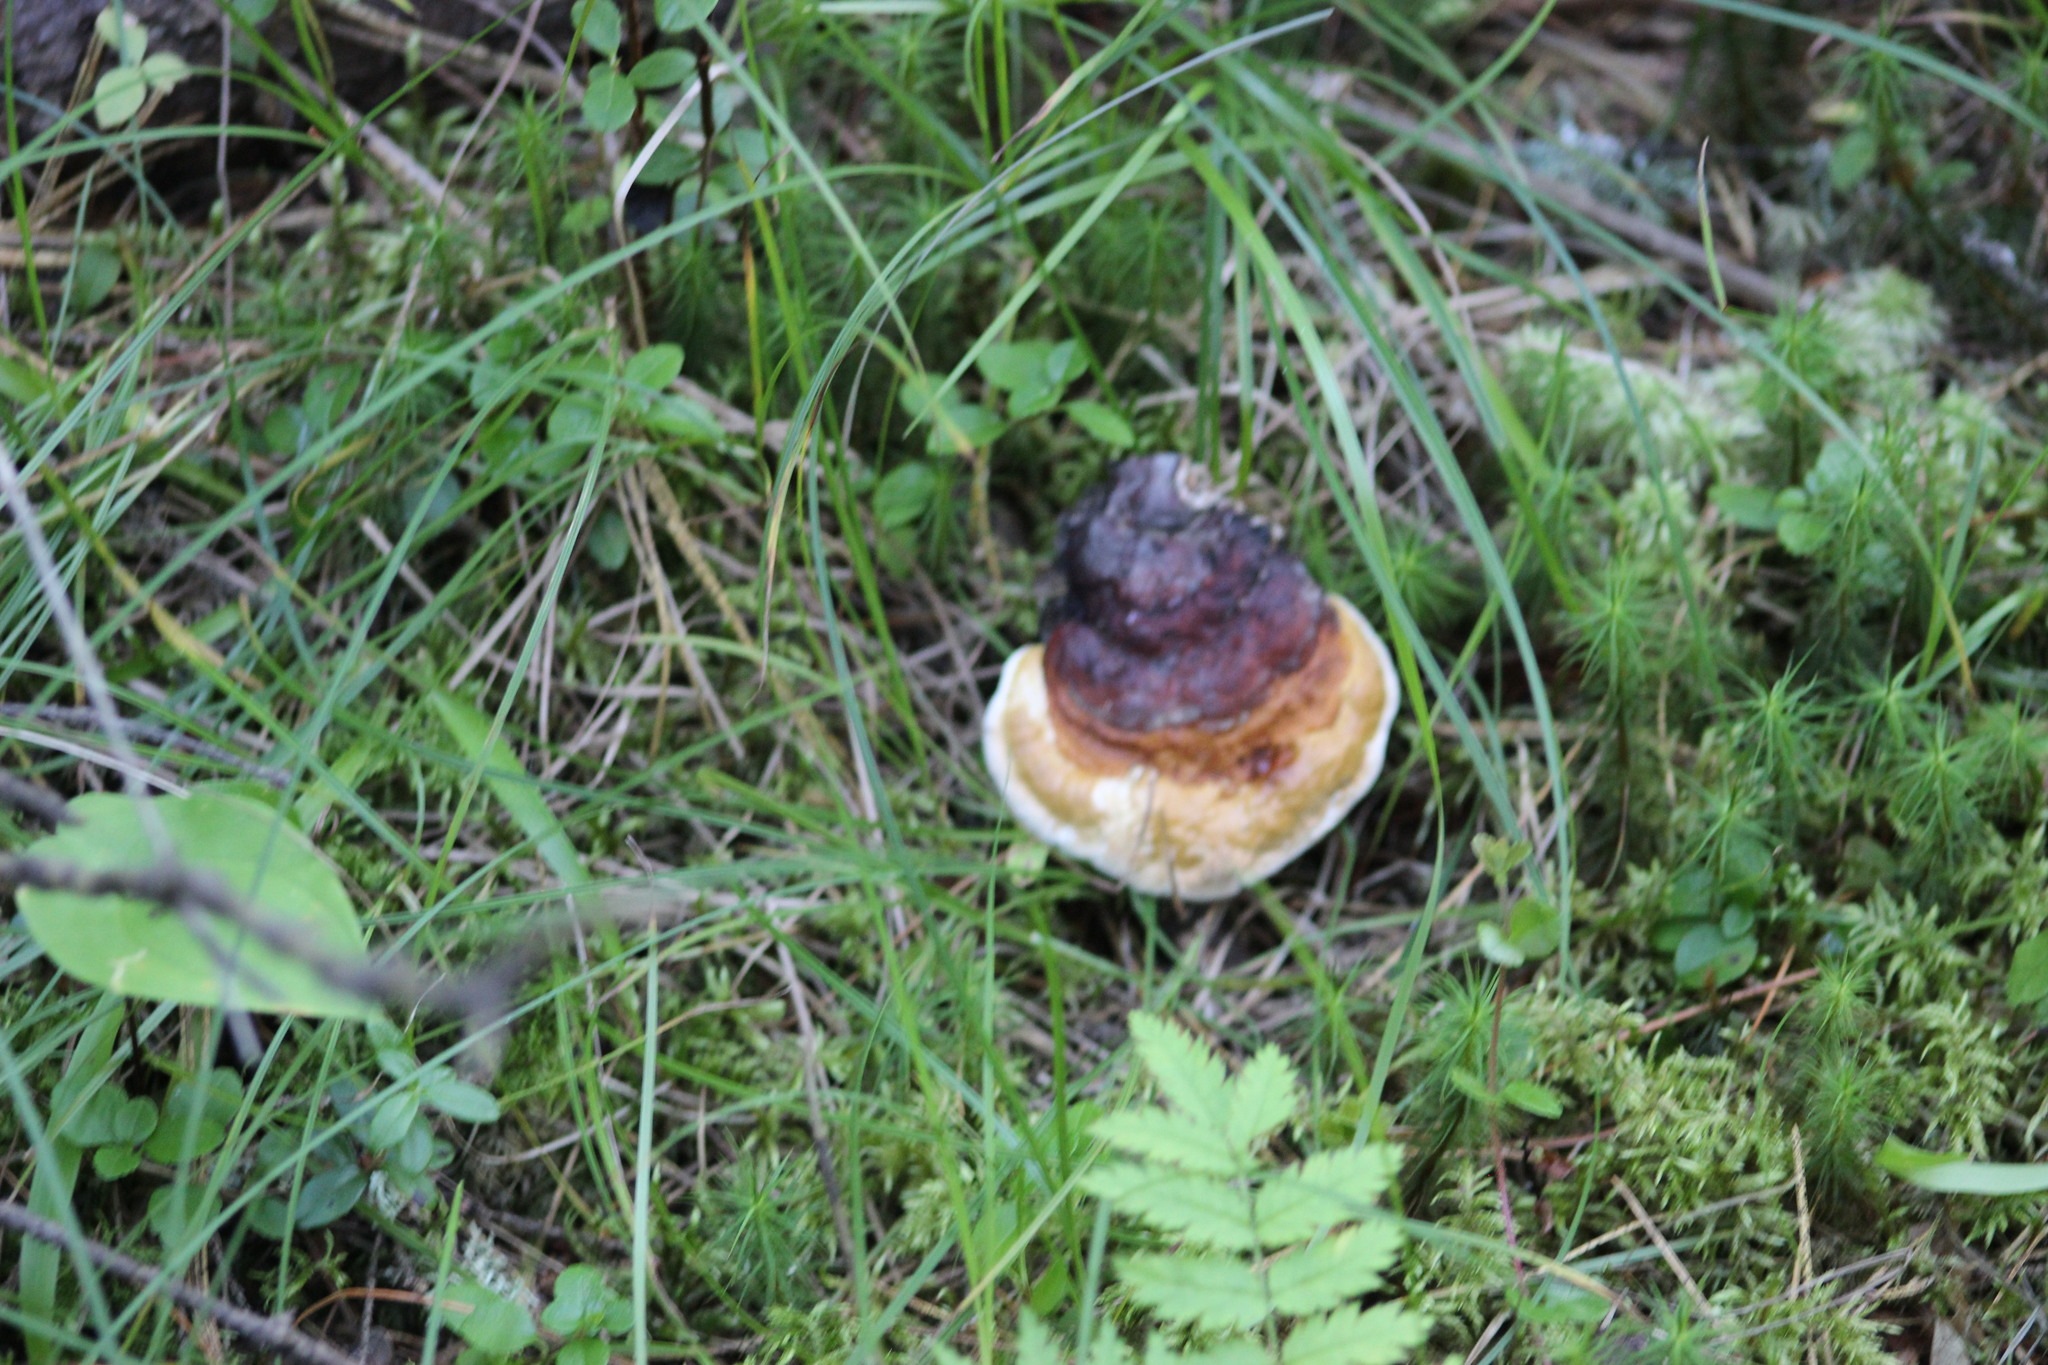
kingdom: Fungi
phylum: Basidiomycota
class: Agaricomycetes
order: Polyporales
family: Fomitopsidaceae
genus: Fomitopsis
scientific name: Fomitopsis pinicola
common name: Red-belted bracket
